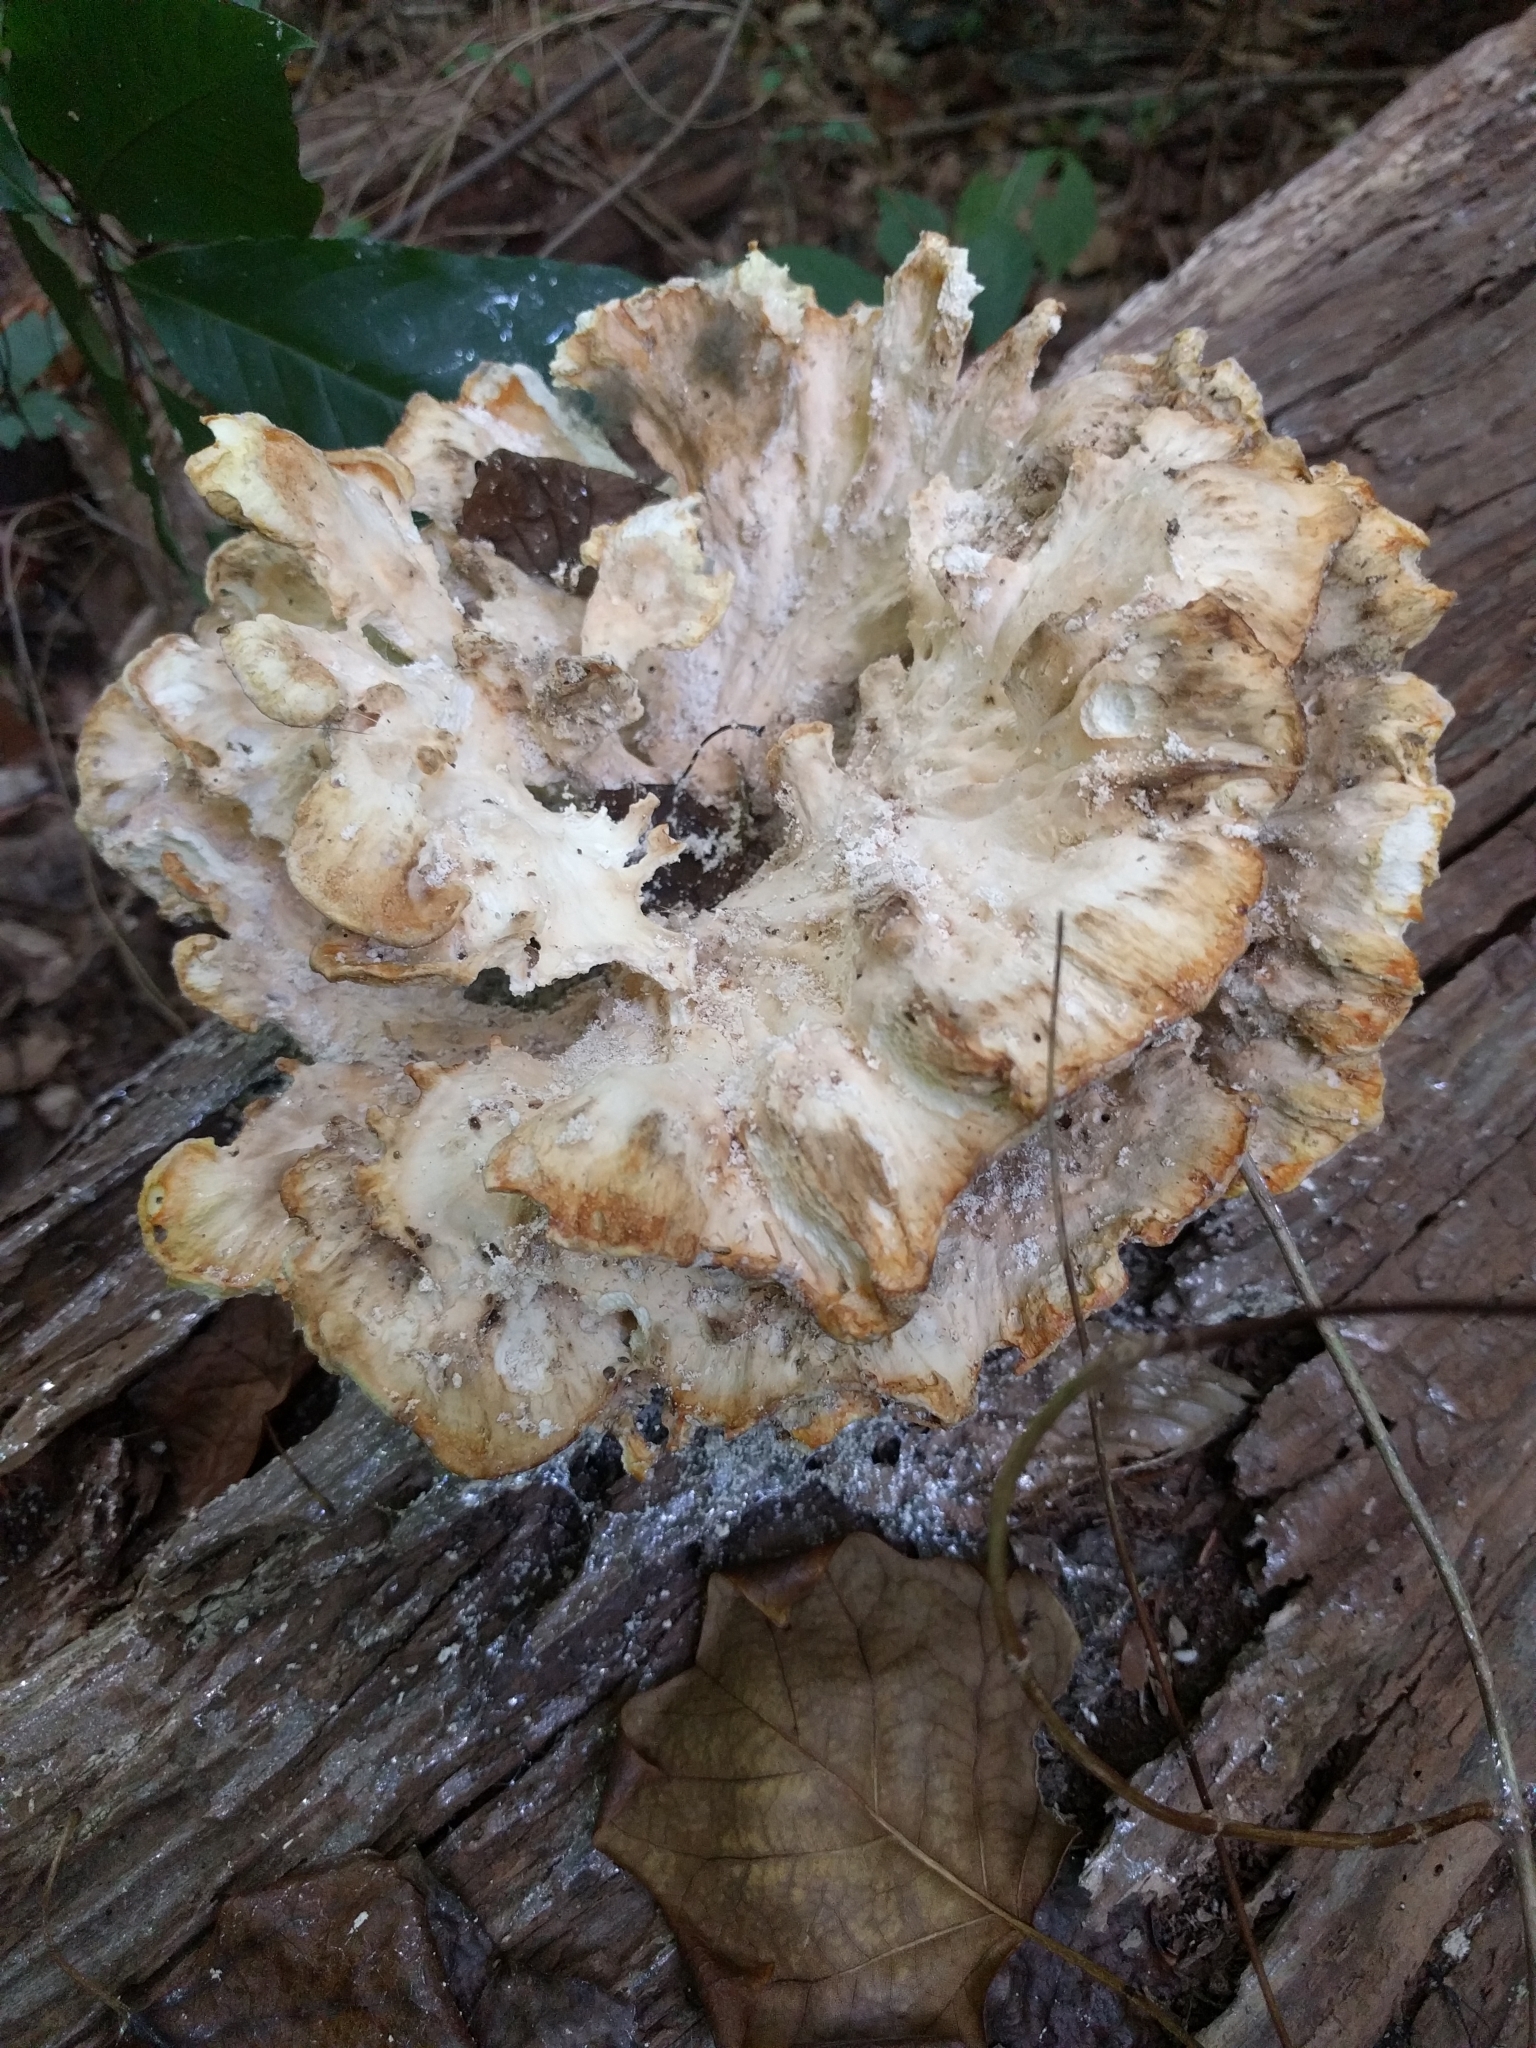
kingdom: Fungi
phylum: Basidiomycota
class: Agaricomycetes
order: Polyporales
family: Meripilaceae
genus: Meripilus
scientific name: Meripilus sumstinei
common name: Black-staining polypore
